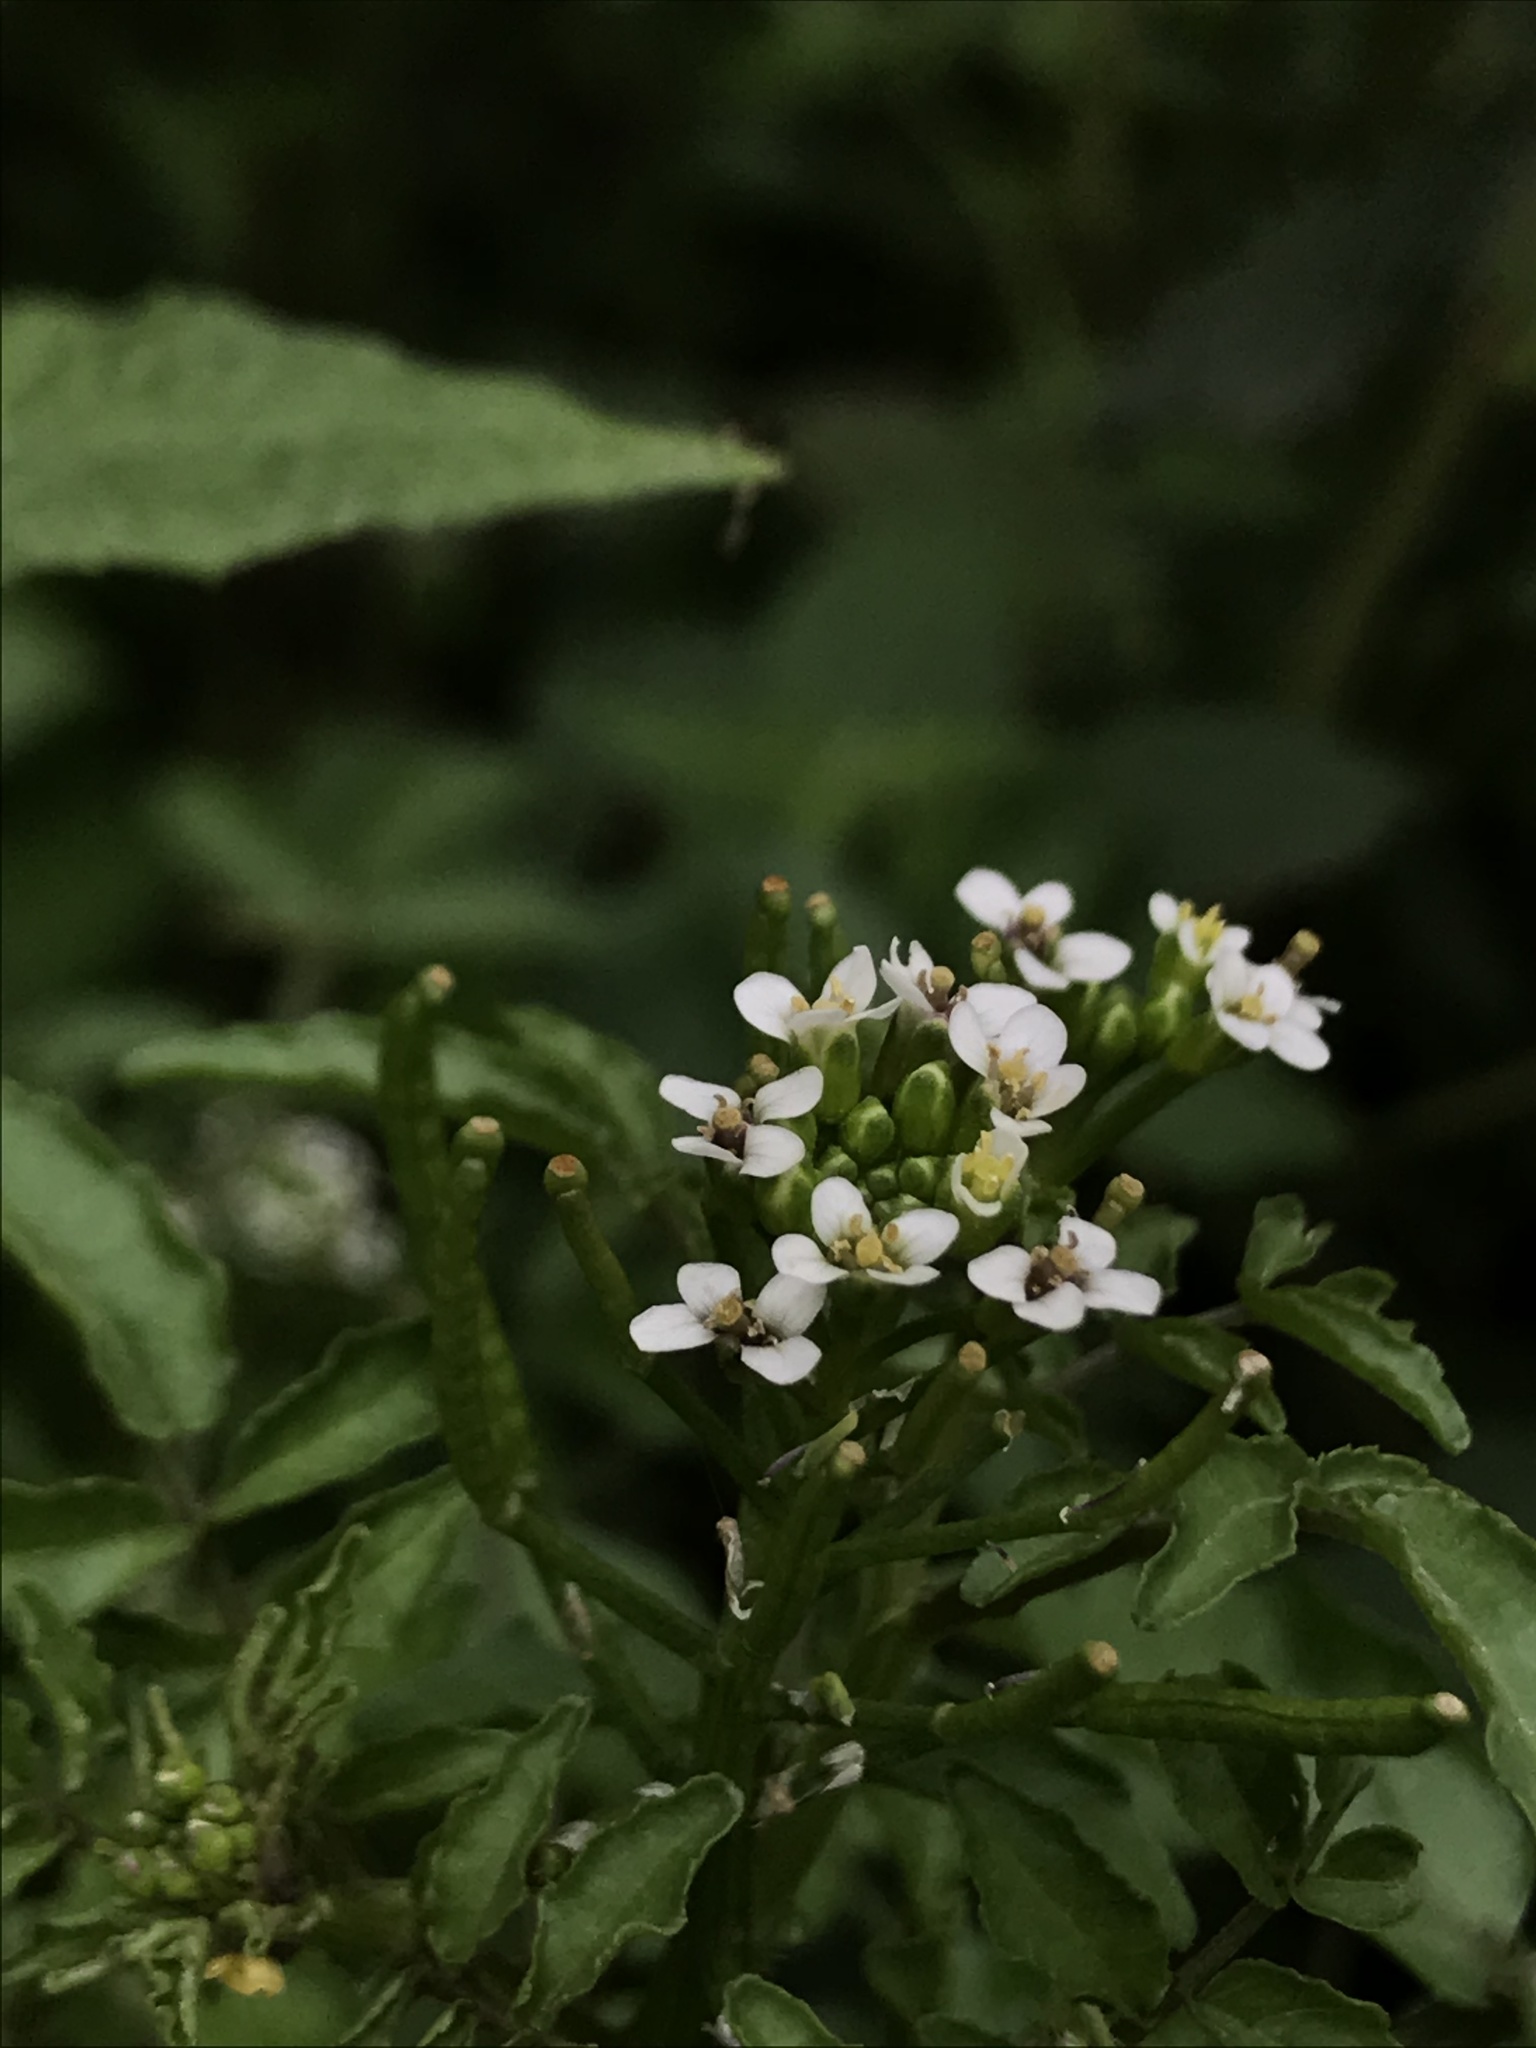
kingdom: Plantae
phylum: Tracheophyta
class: Magnoliopsida
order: Brassicales
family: Brassicaceae
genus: Nasturtium
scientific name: Nasturtium officinale
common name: Watercress
